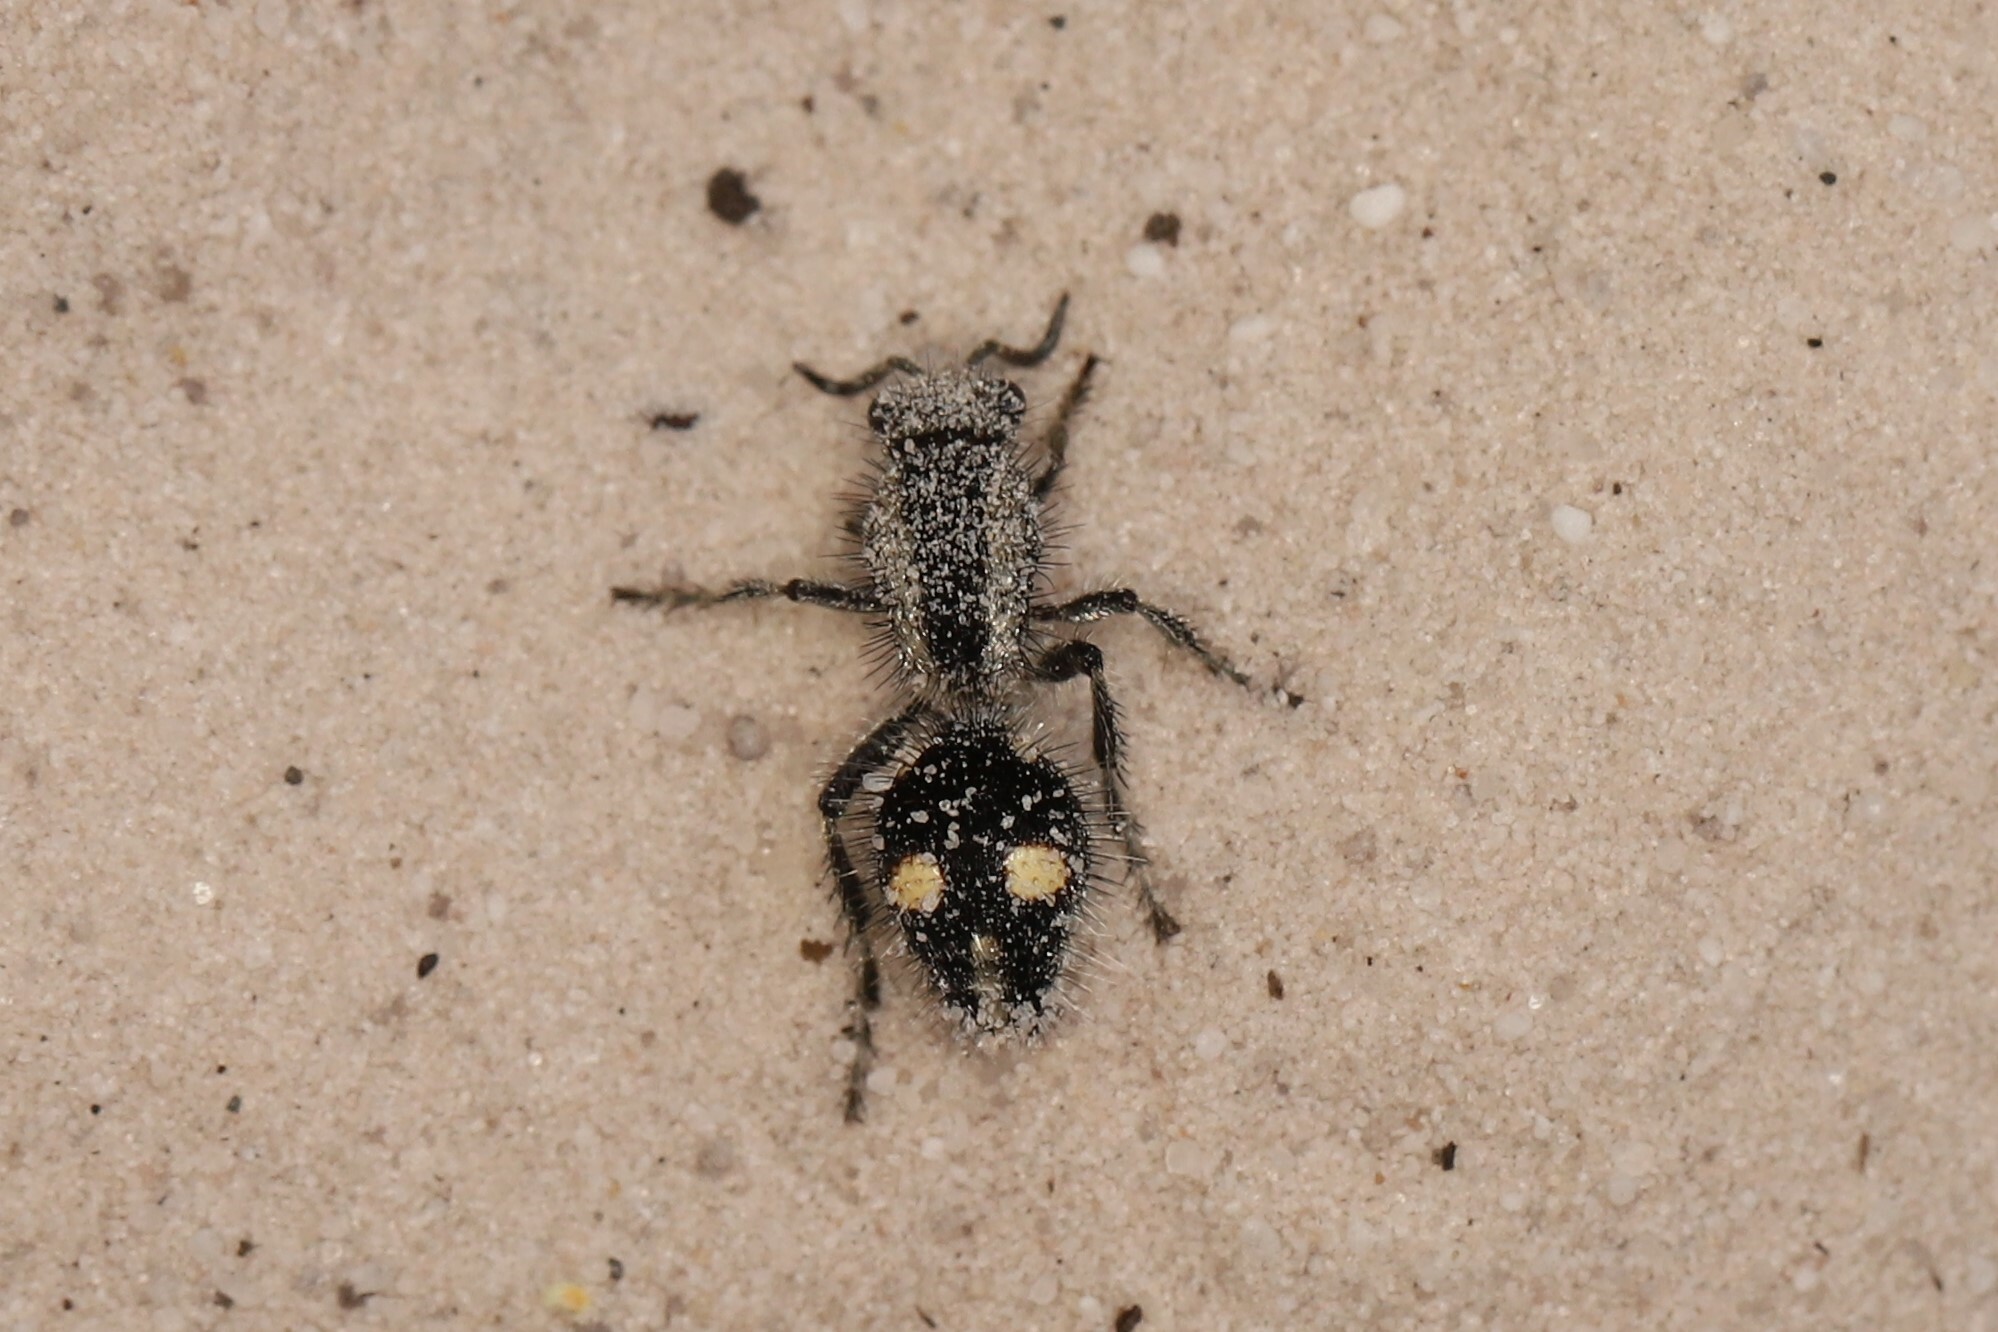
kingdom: Animalia
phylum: Arthropoda
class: Insecta
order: Hymenoptera
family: Mutillidae
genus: Traumatomutilla
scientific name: Traumatomutilla ocellaris
